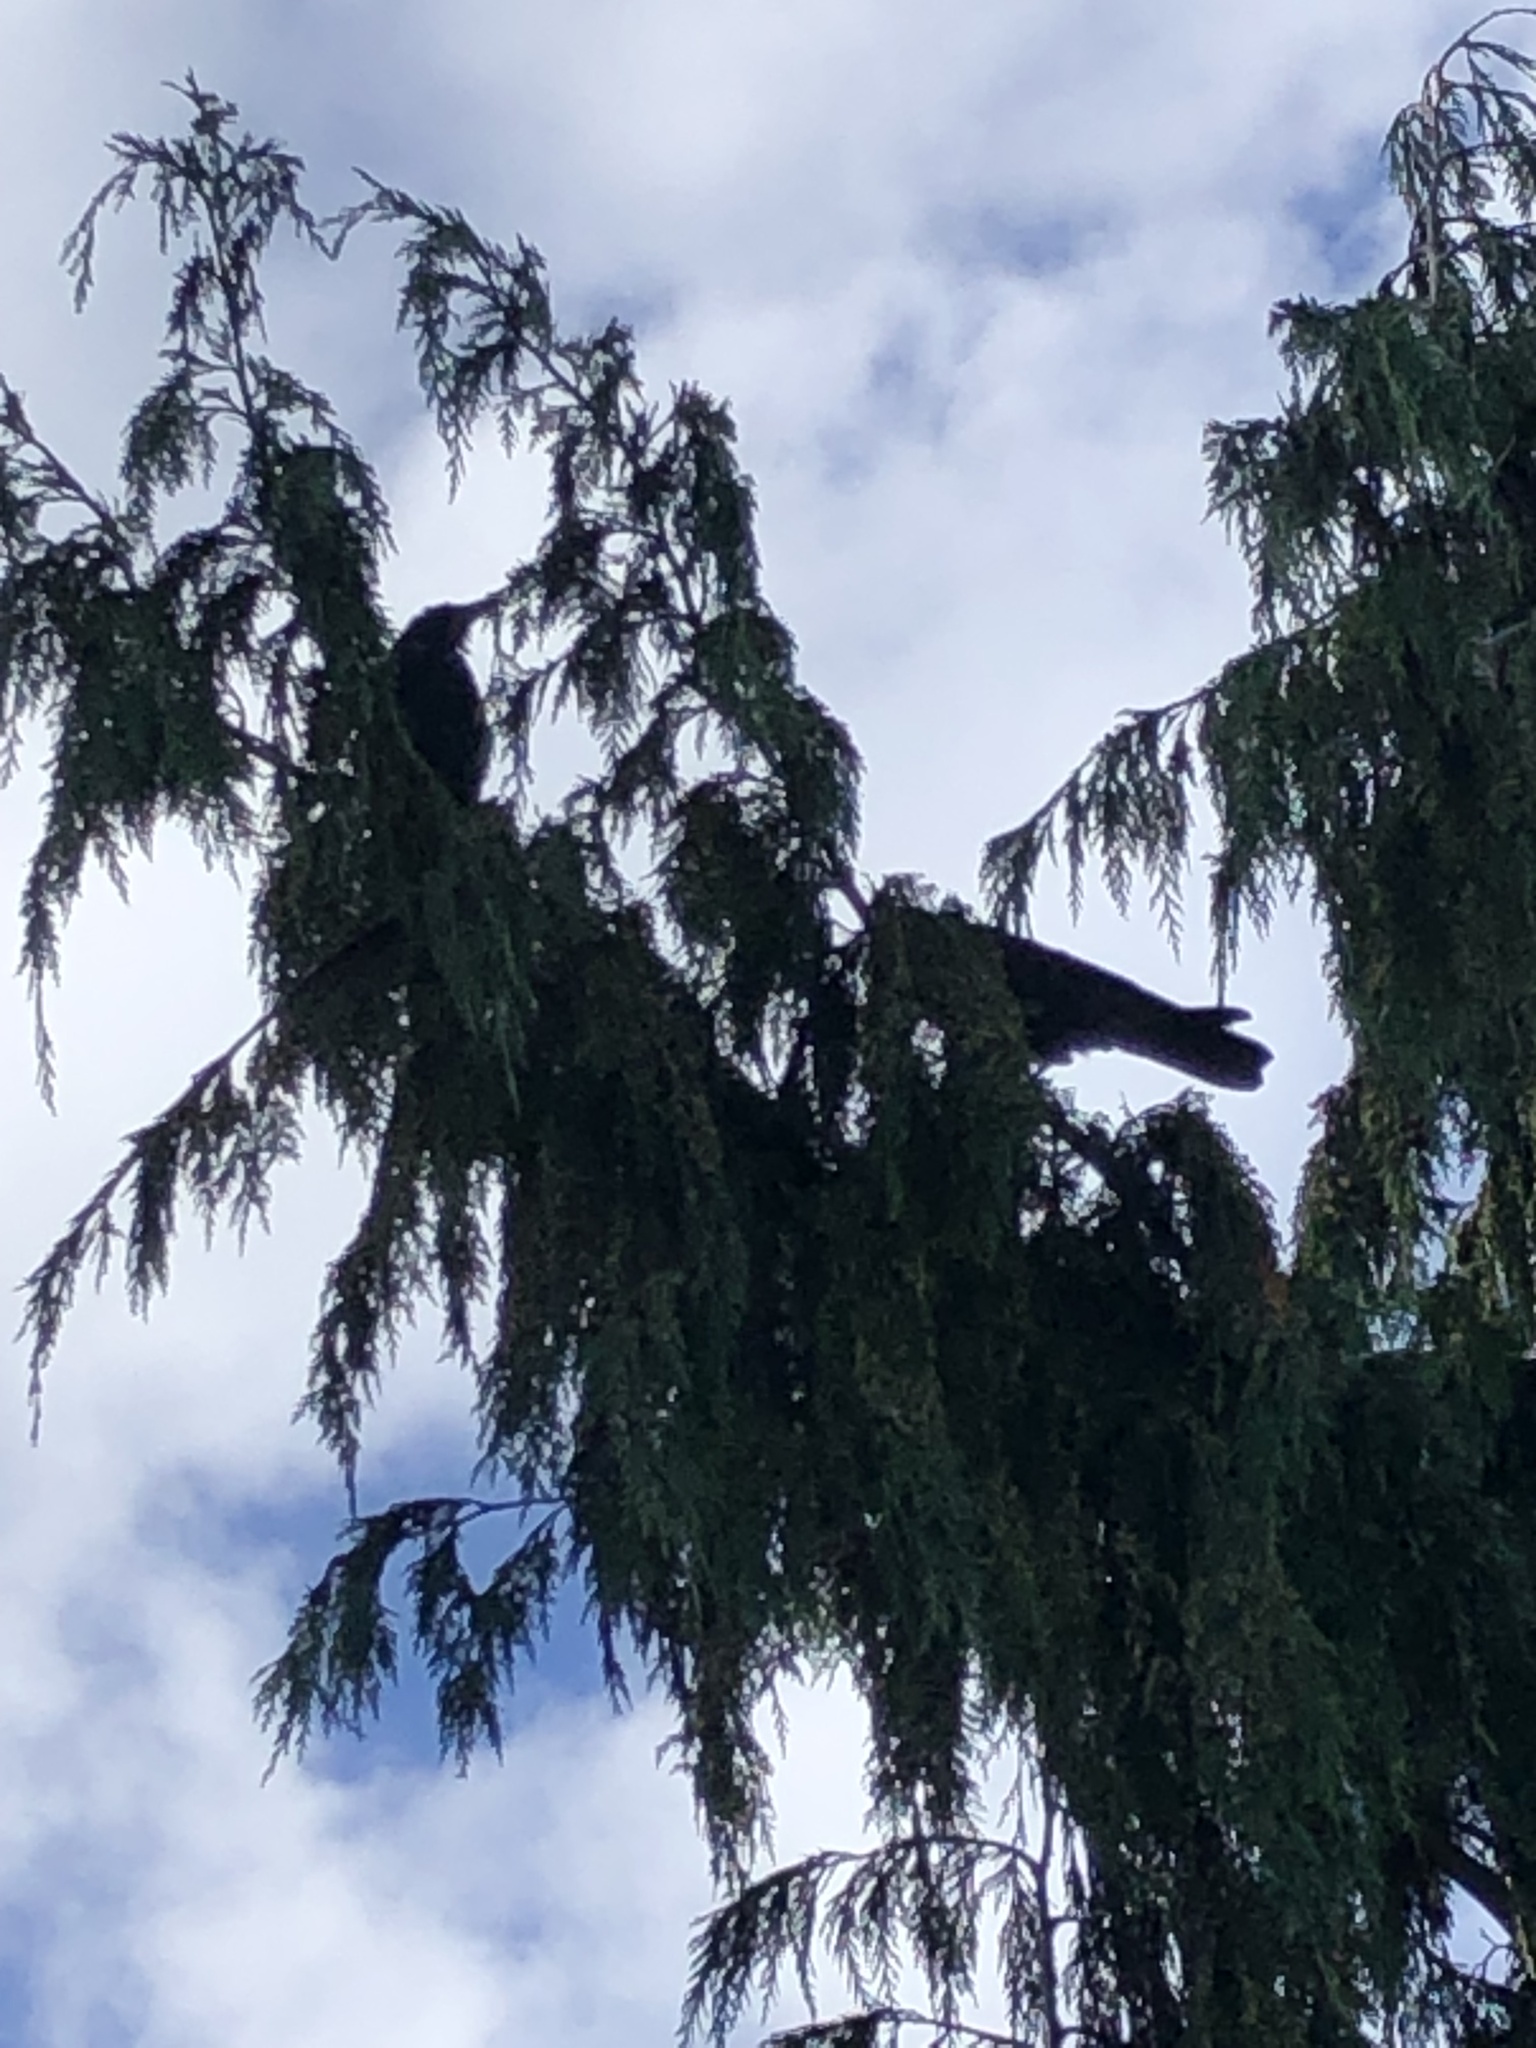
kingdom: Animalia
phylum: Chordata
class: Aves
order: Passeriformes
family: Corvidae
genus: Corvus
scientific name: Corvus brachyrhynchos
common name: American crow
